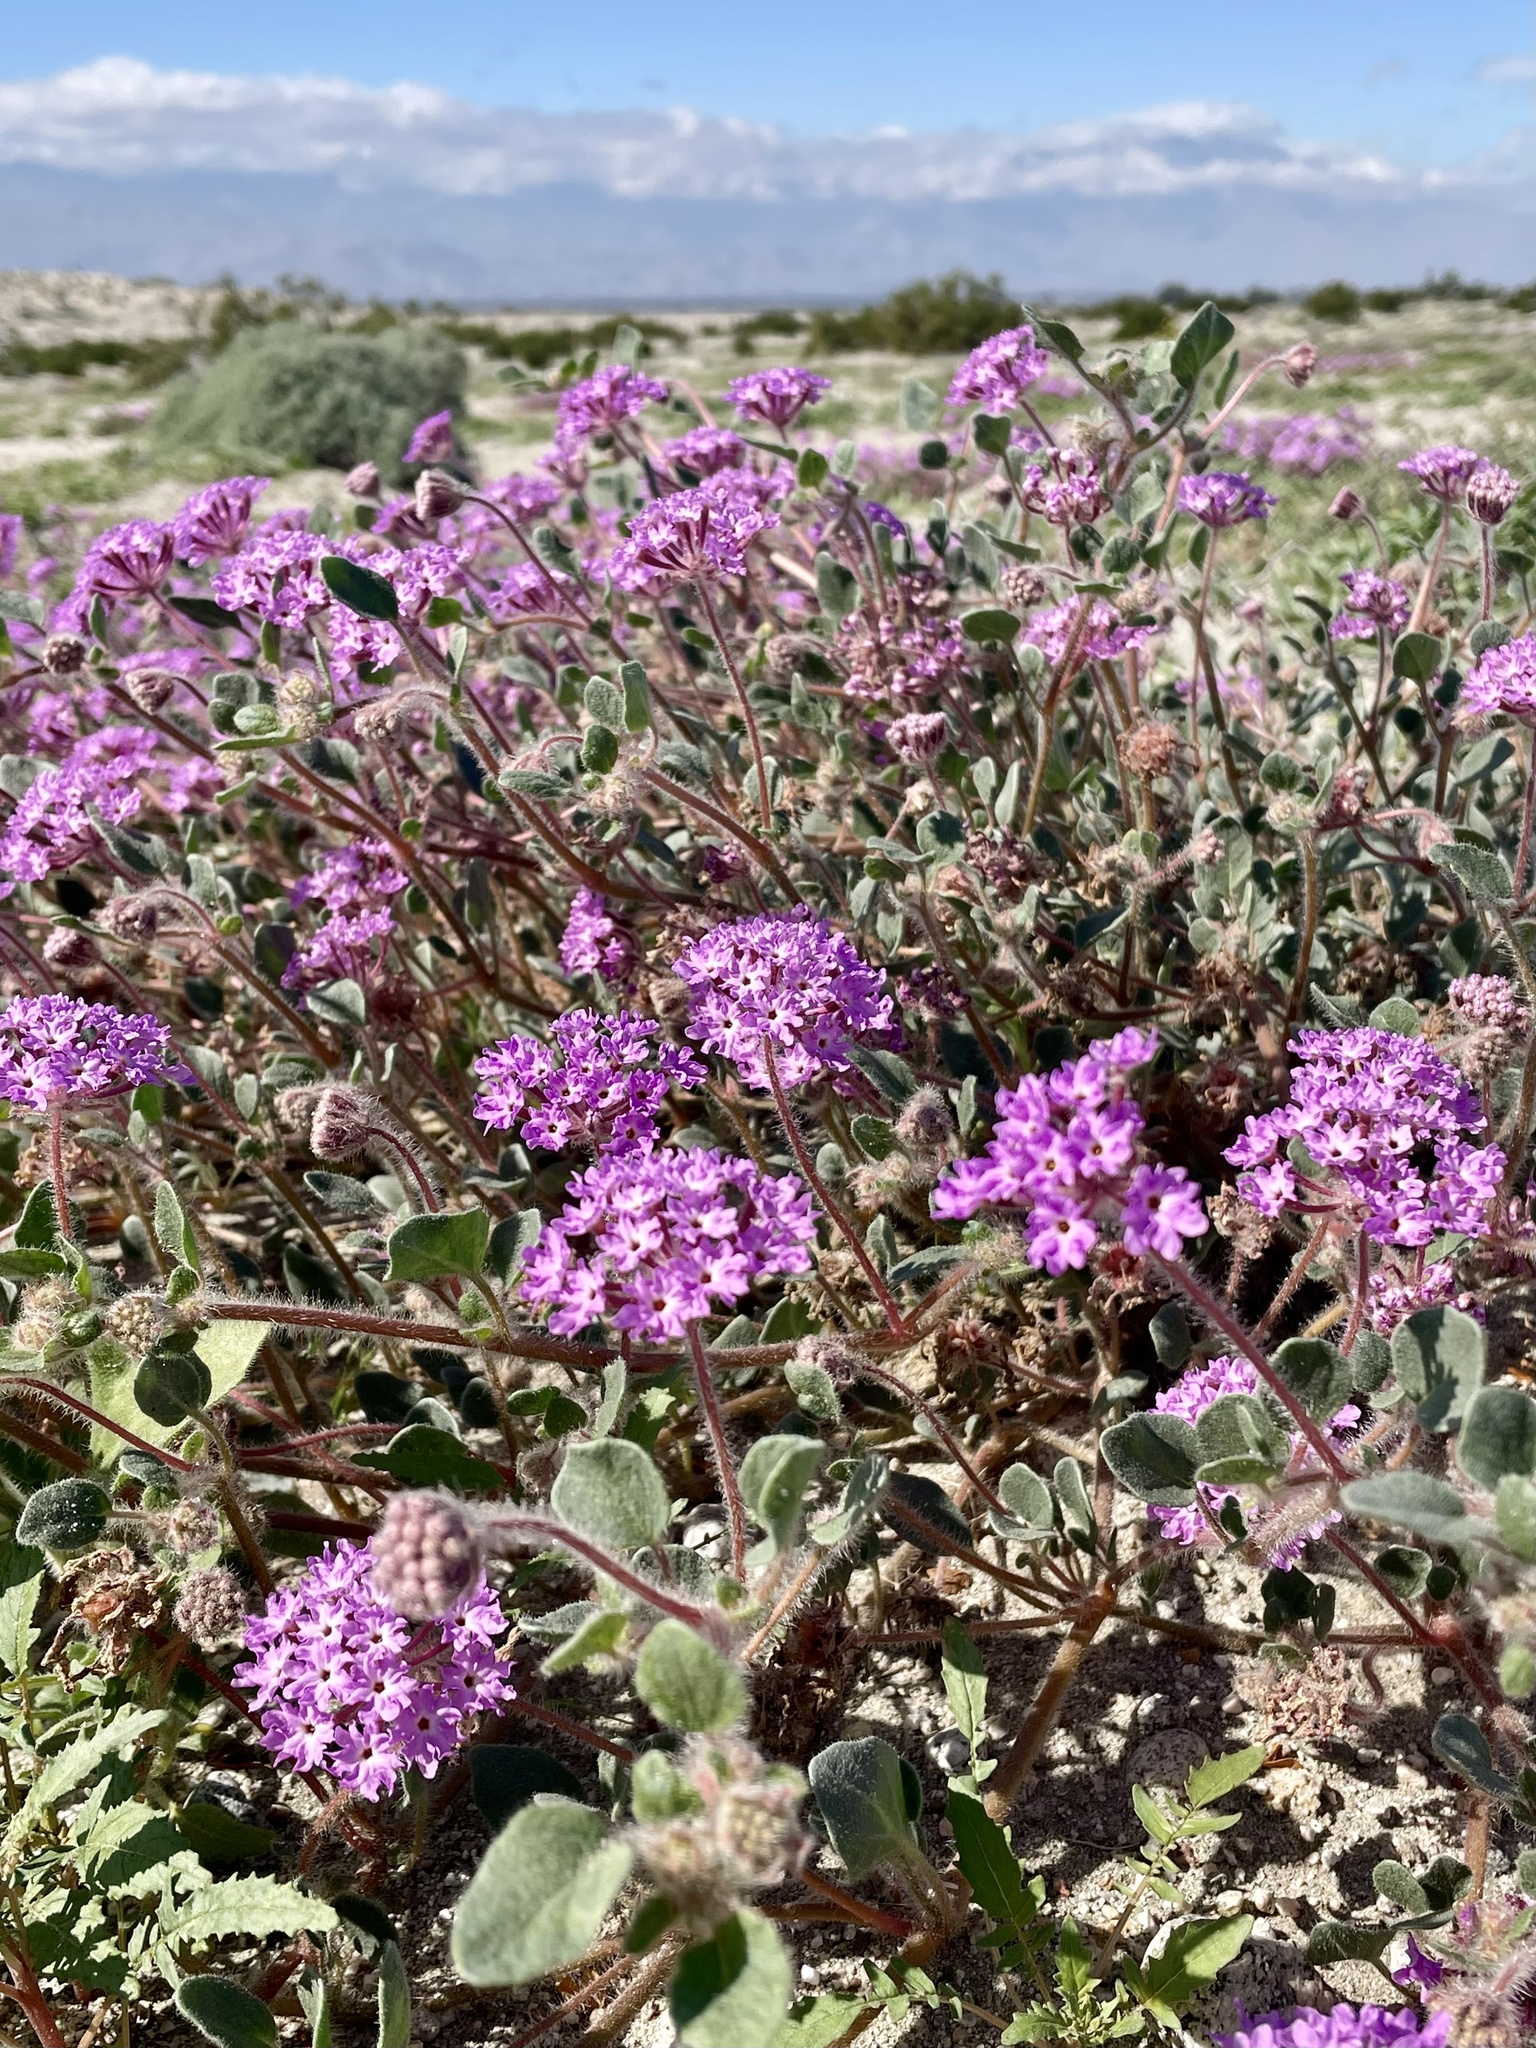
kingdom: Plantae
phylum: Tracheophyta
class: Magnoliopsida
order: Caryophyllales
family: Nyctaginaceae
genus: Abronia
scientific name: Abronia villosa
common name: Desert sand-verbena
